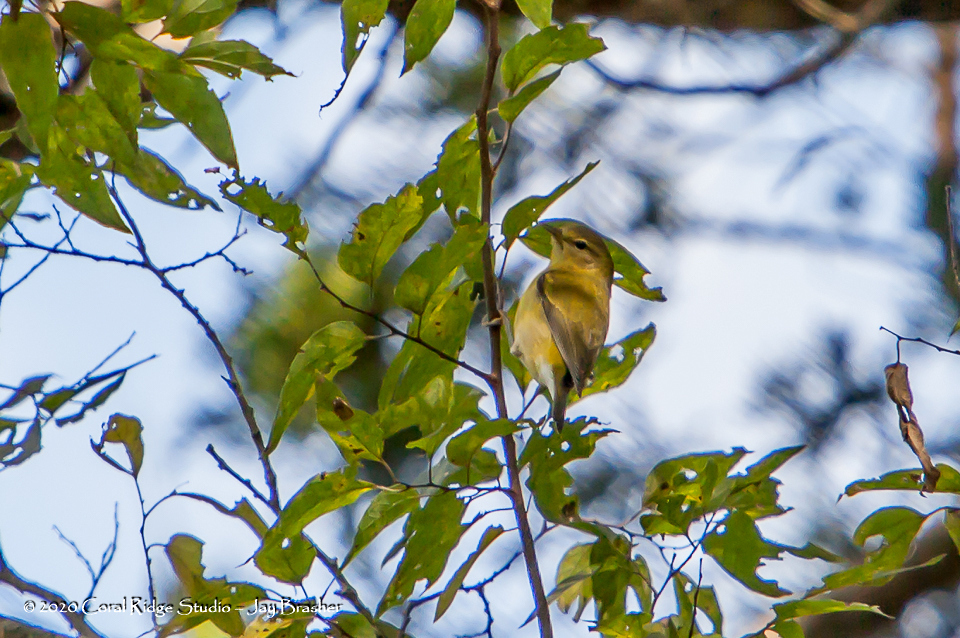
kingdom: Animalia
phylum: Chordata
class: Aves
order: Passeriformes
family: Parulidae
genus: Leiothlypis
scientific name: Leiothlypis peregrina
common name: Tennessee warbler
